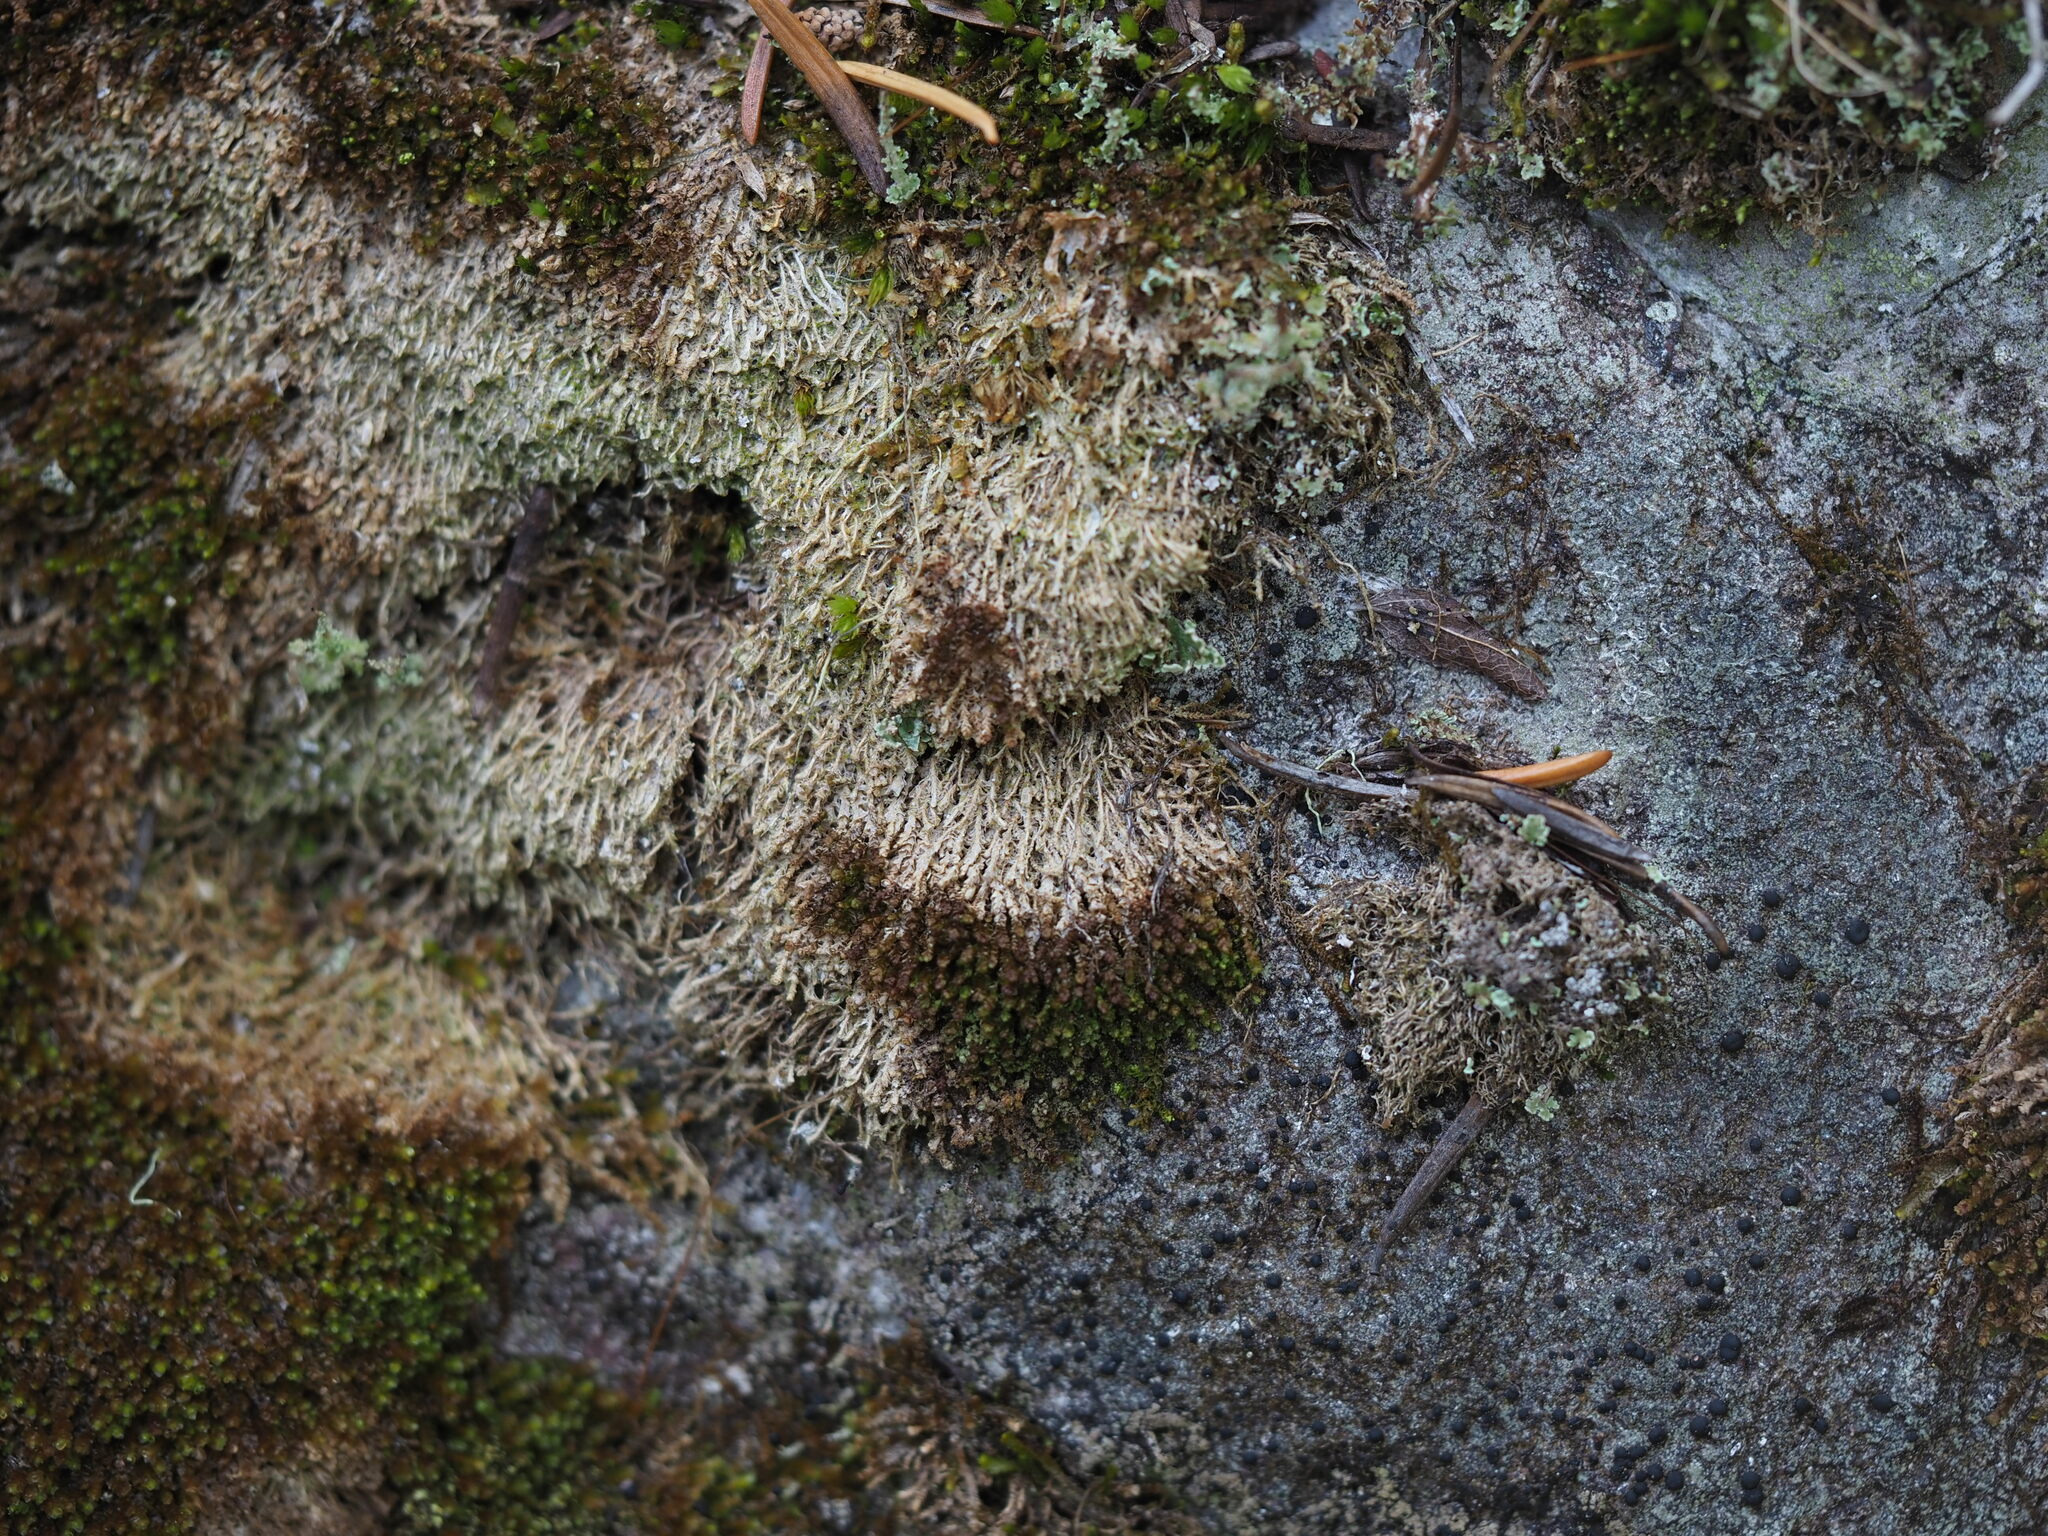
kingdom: Fungi
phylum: Ascomycota
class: Lecanoromycetes
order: Lecanorales
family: Dactylosporaceae
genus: Dactylospora
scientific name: Dactylospora scapanaria
